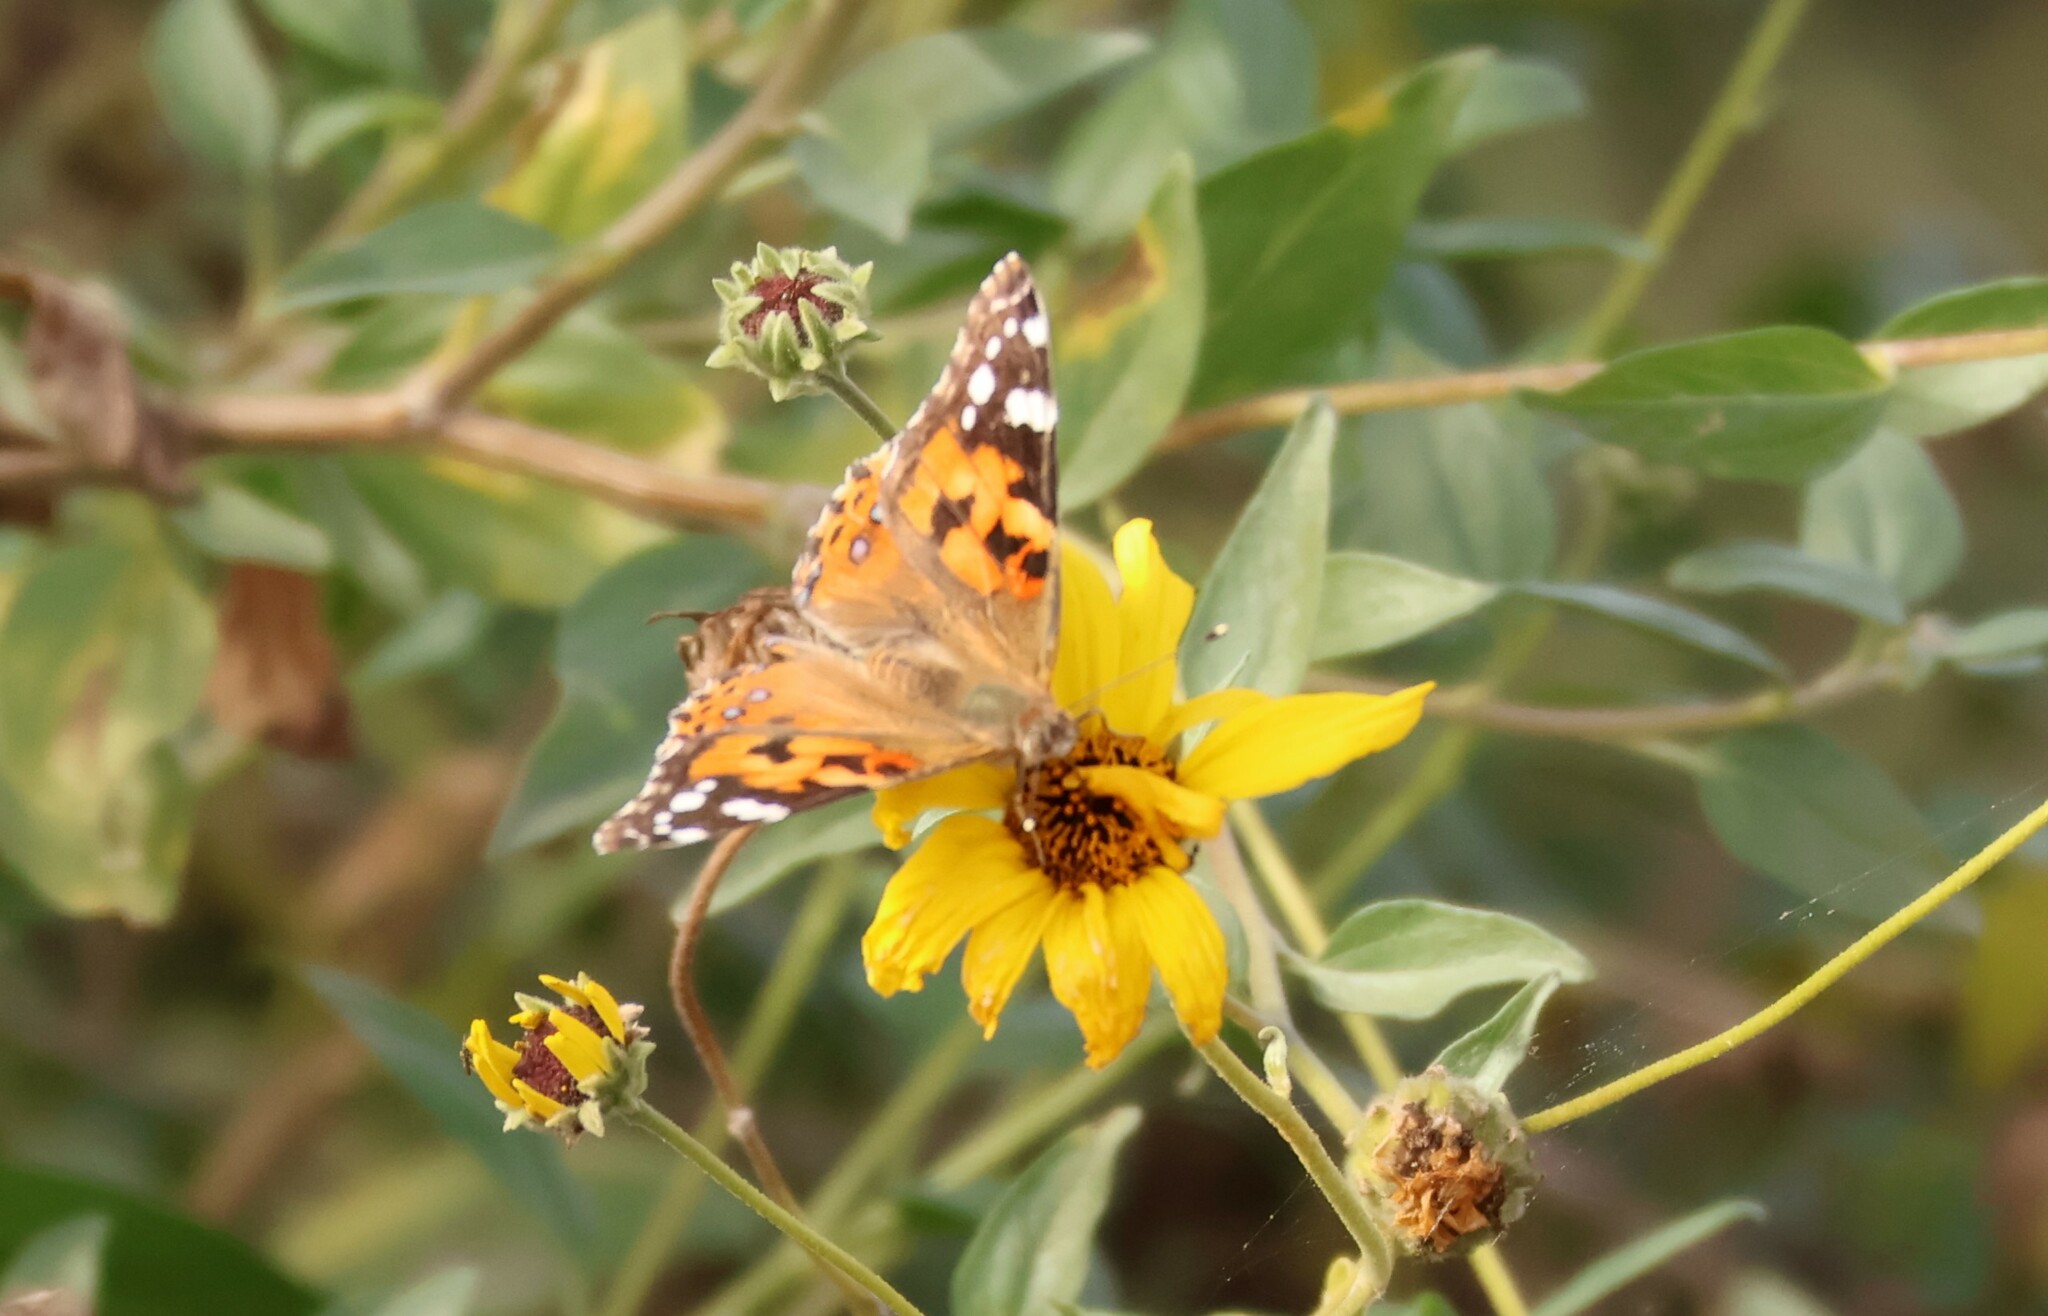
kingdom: Animalia
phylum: Arthropoda
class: Insecta
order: Lepidoptera
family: Nymphalidae
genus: Vanessa
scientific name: Vanessa cardui
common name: Painted lady
